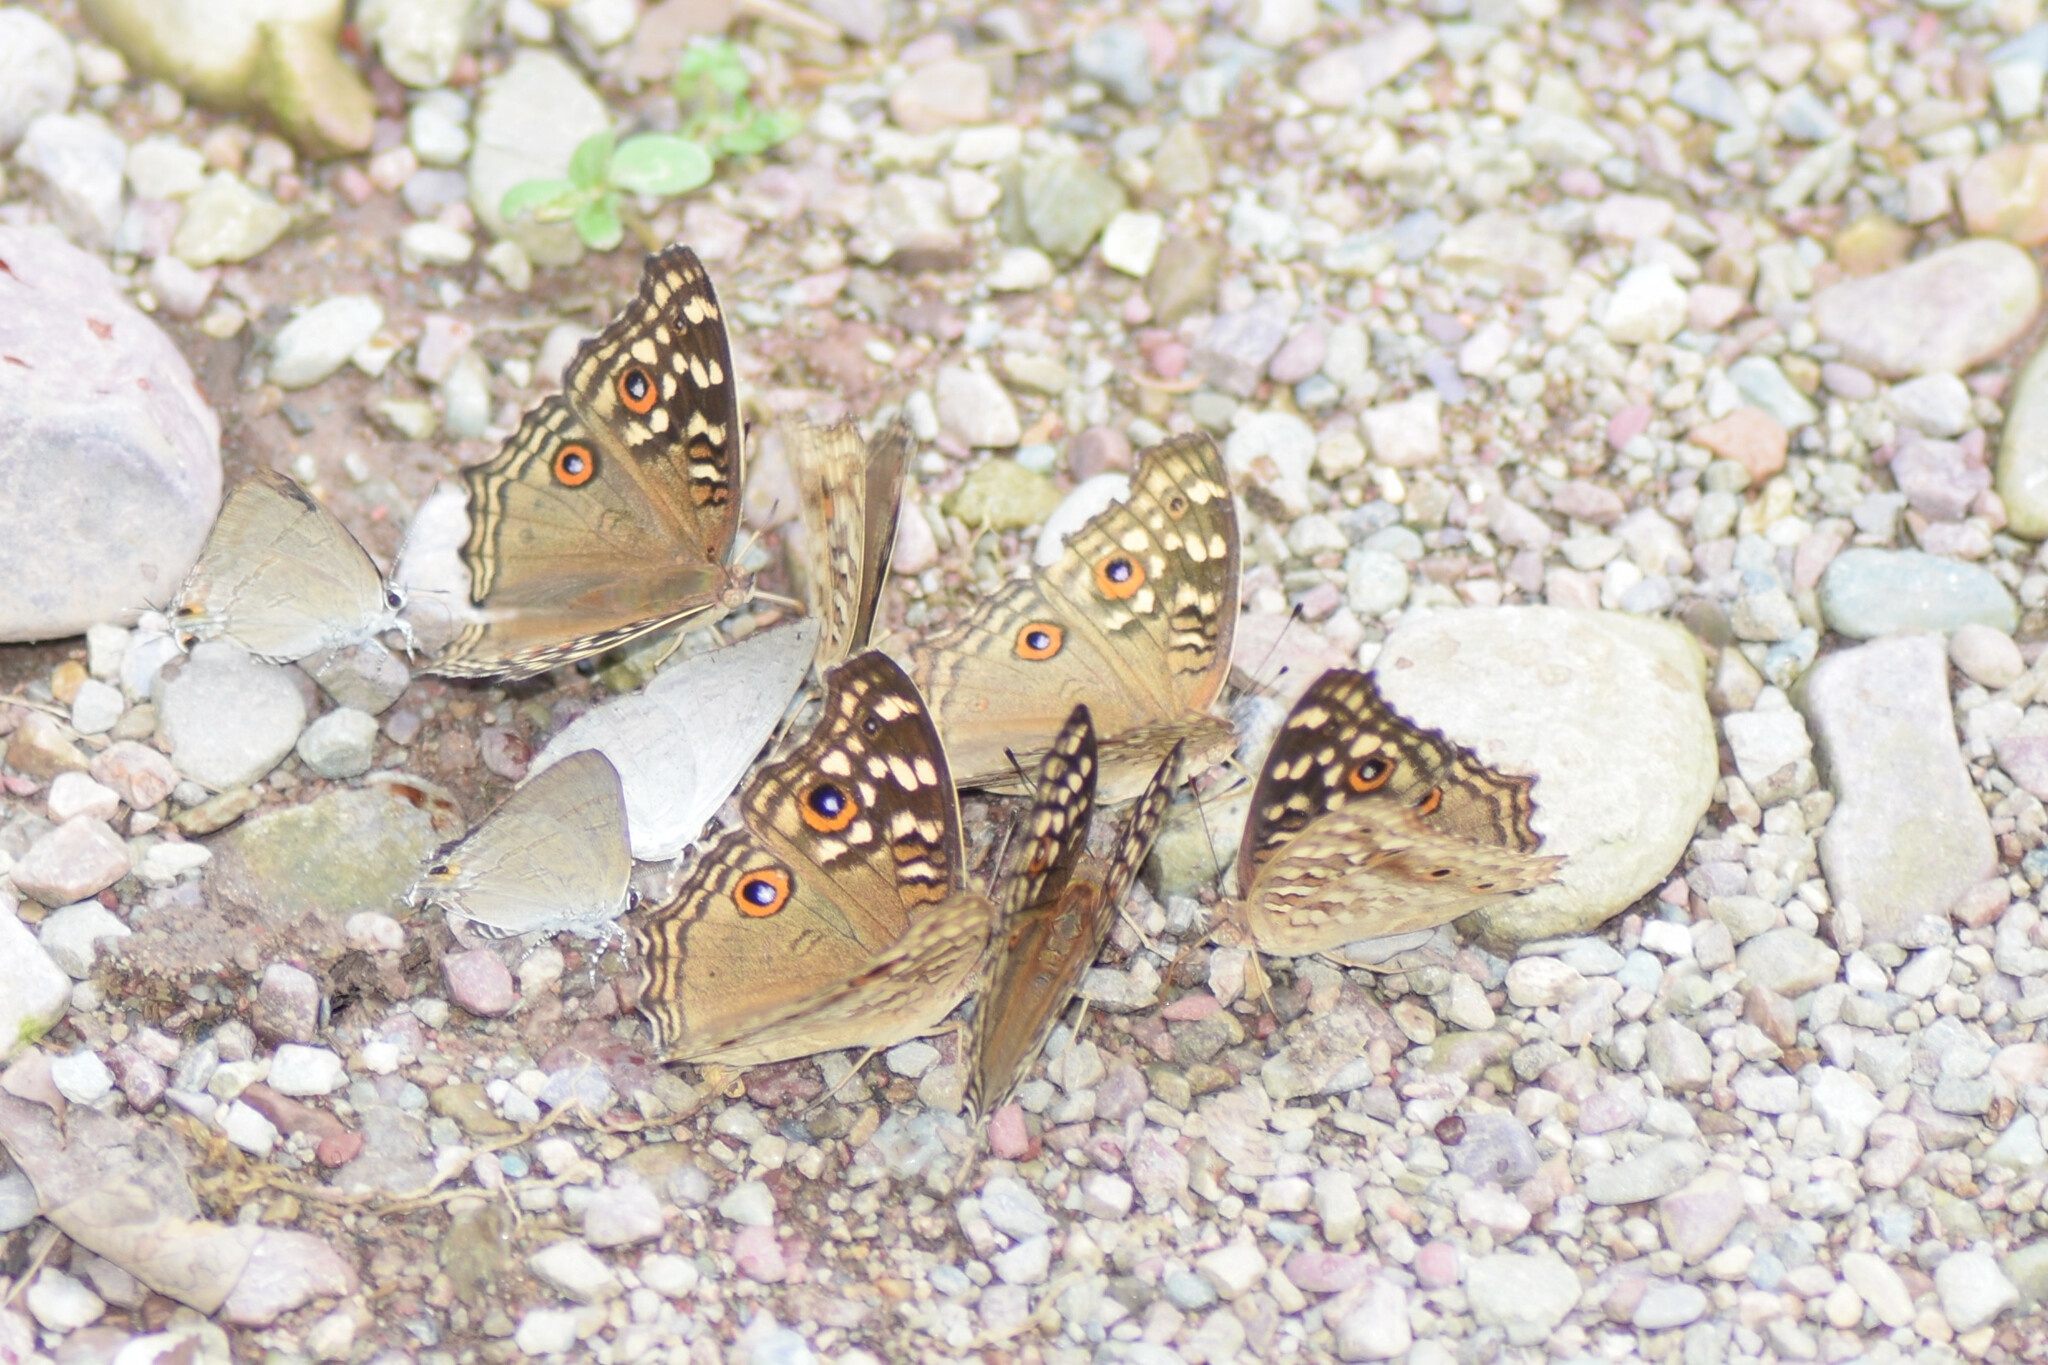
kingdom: Animalia
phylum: Arthropoda
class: Insecta
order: Lepidoptera
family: Nymphalidae
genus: Junonia
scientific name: Junonia lemonias
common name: Lemon pansy
